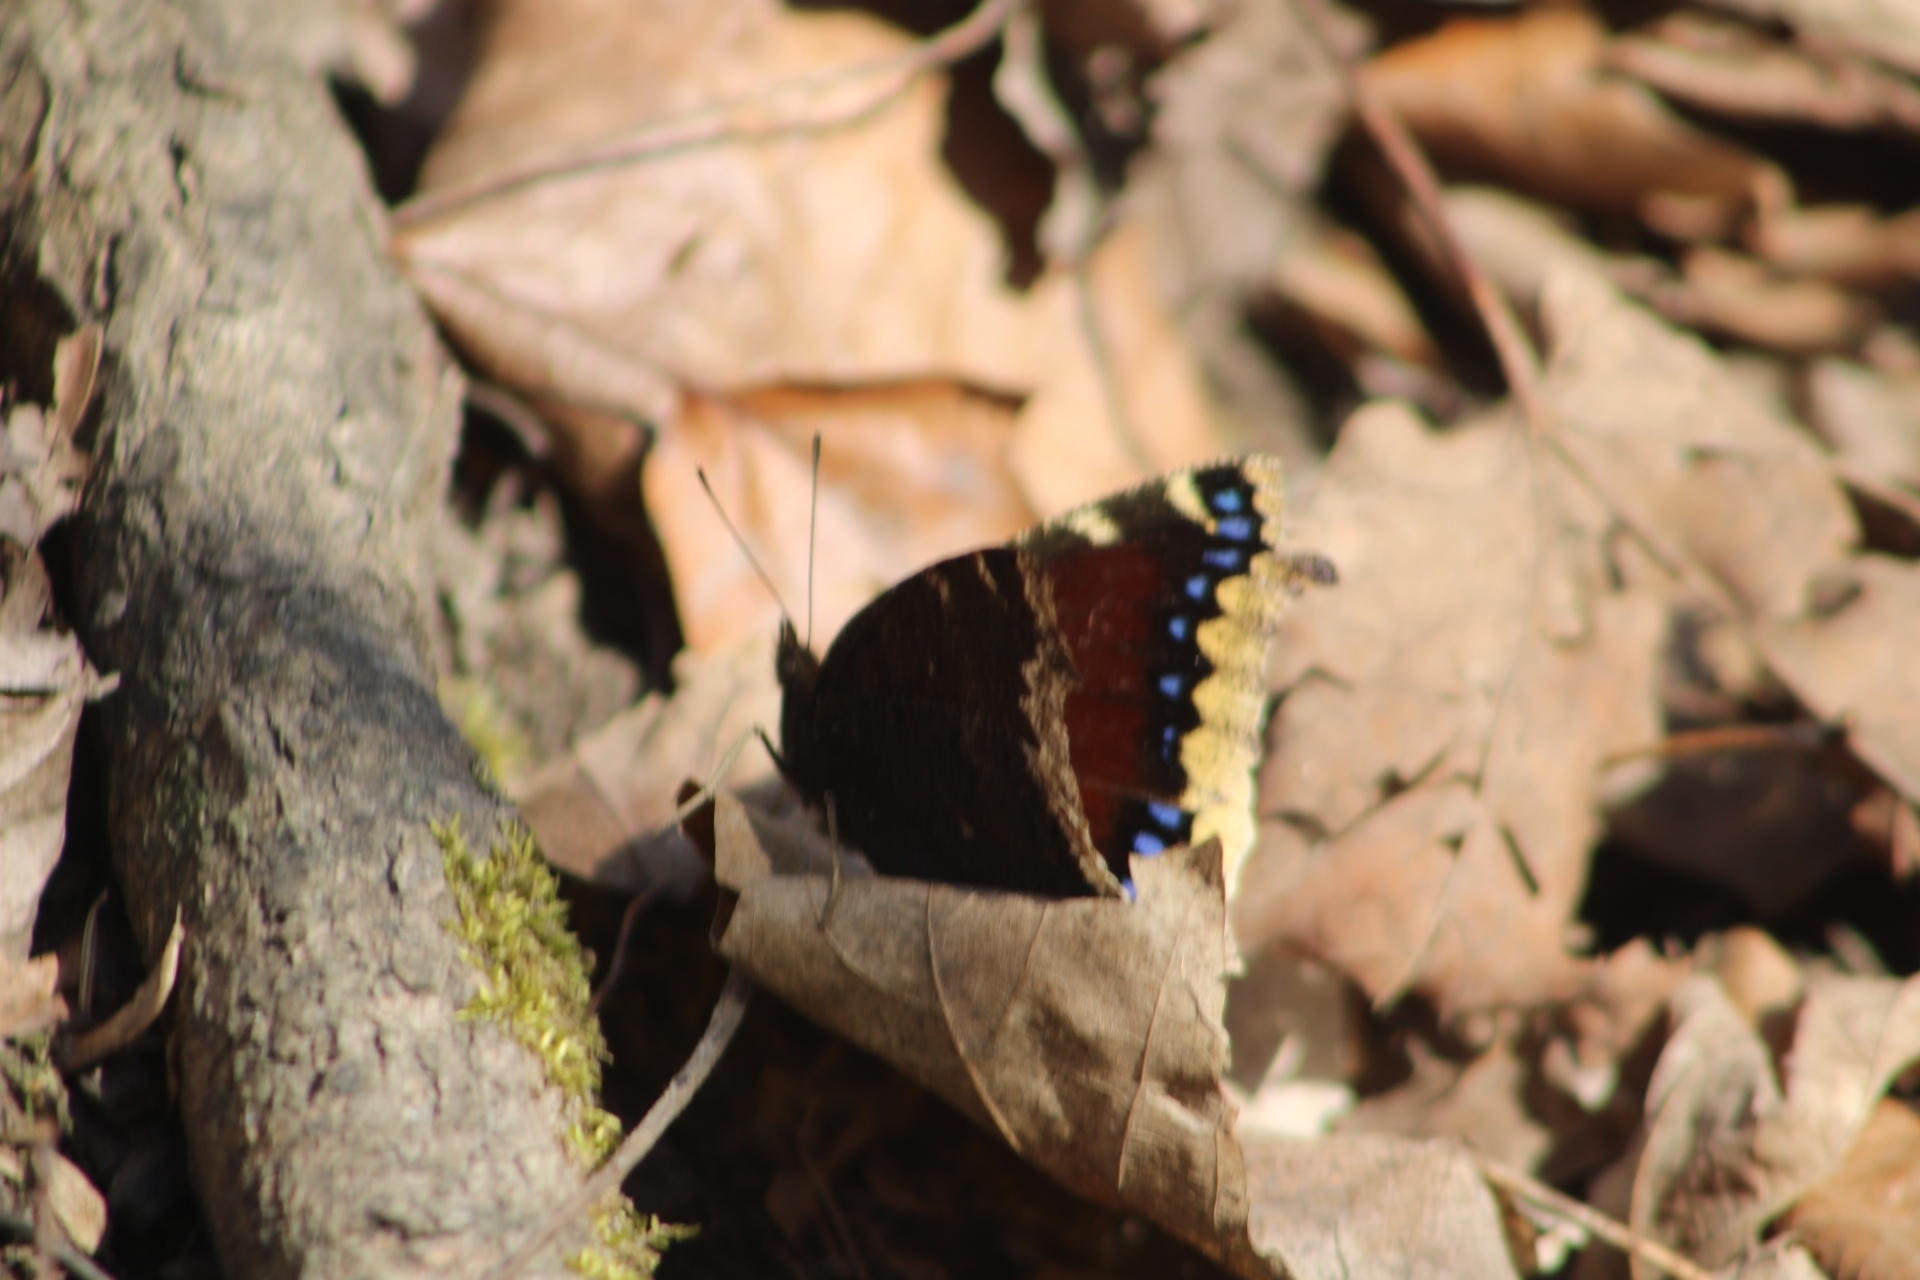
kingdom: Animalia
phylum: Arthropoda
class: Insecta
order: Lepidoptera
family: Nymphalidae
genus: Nymphalis
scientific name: Nymphalis antiopa
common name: Camberwell beauty
